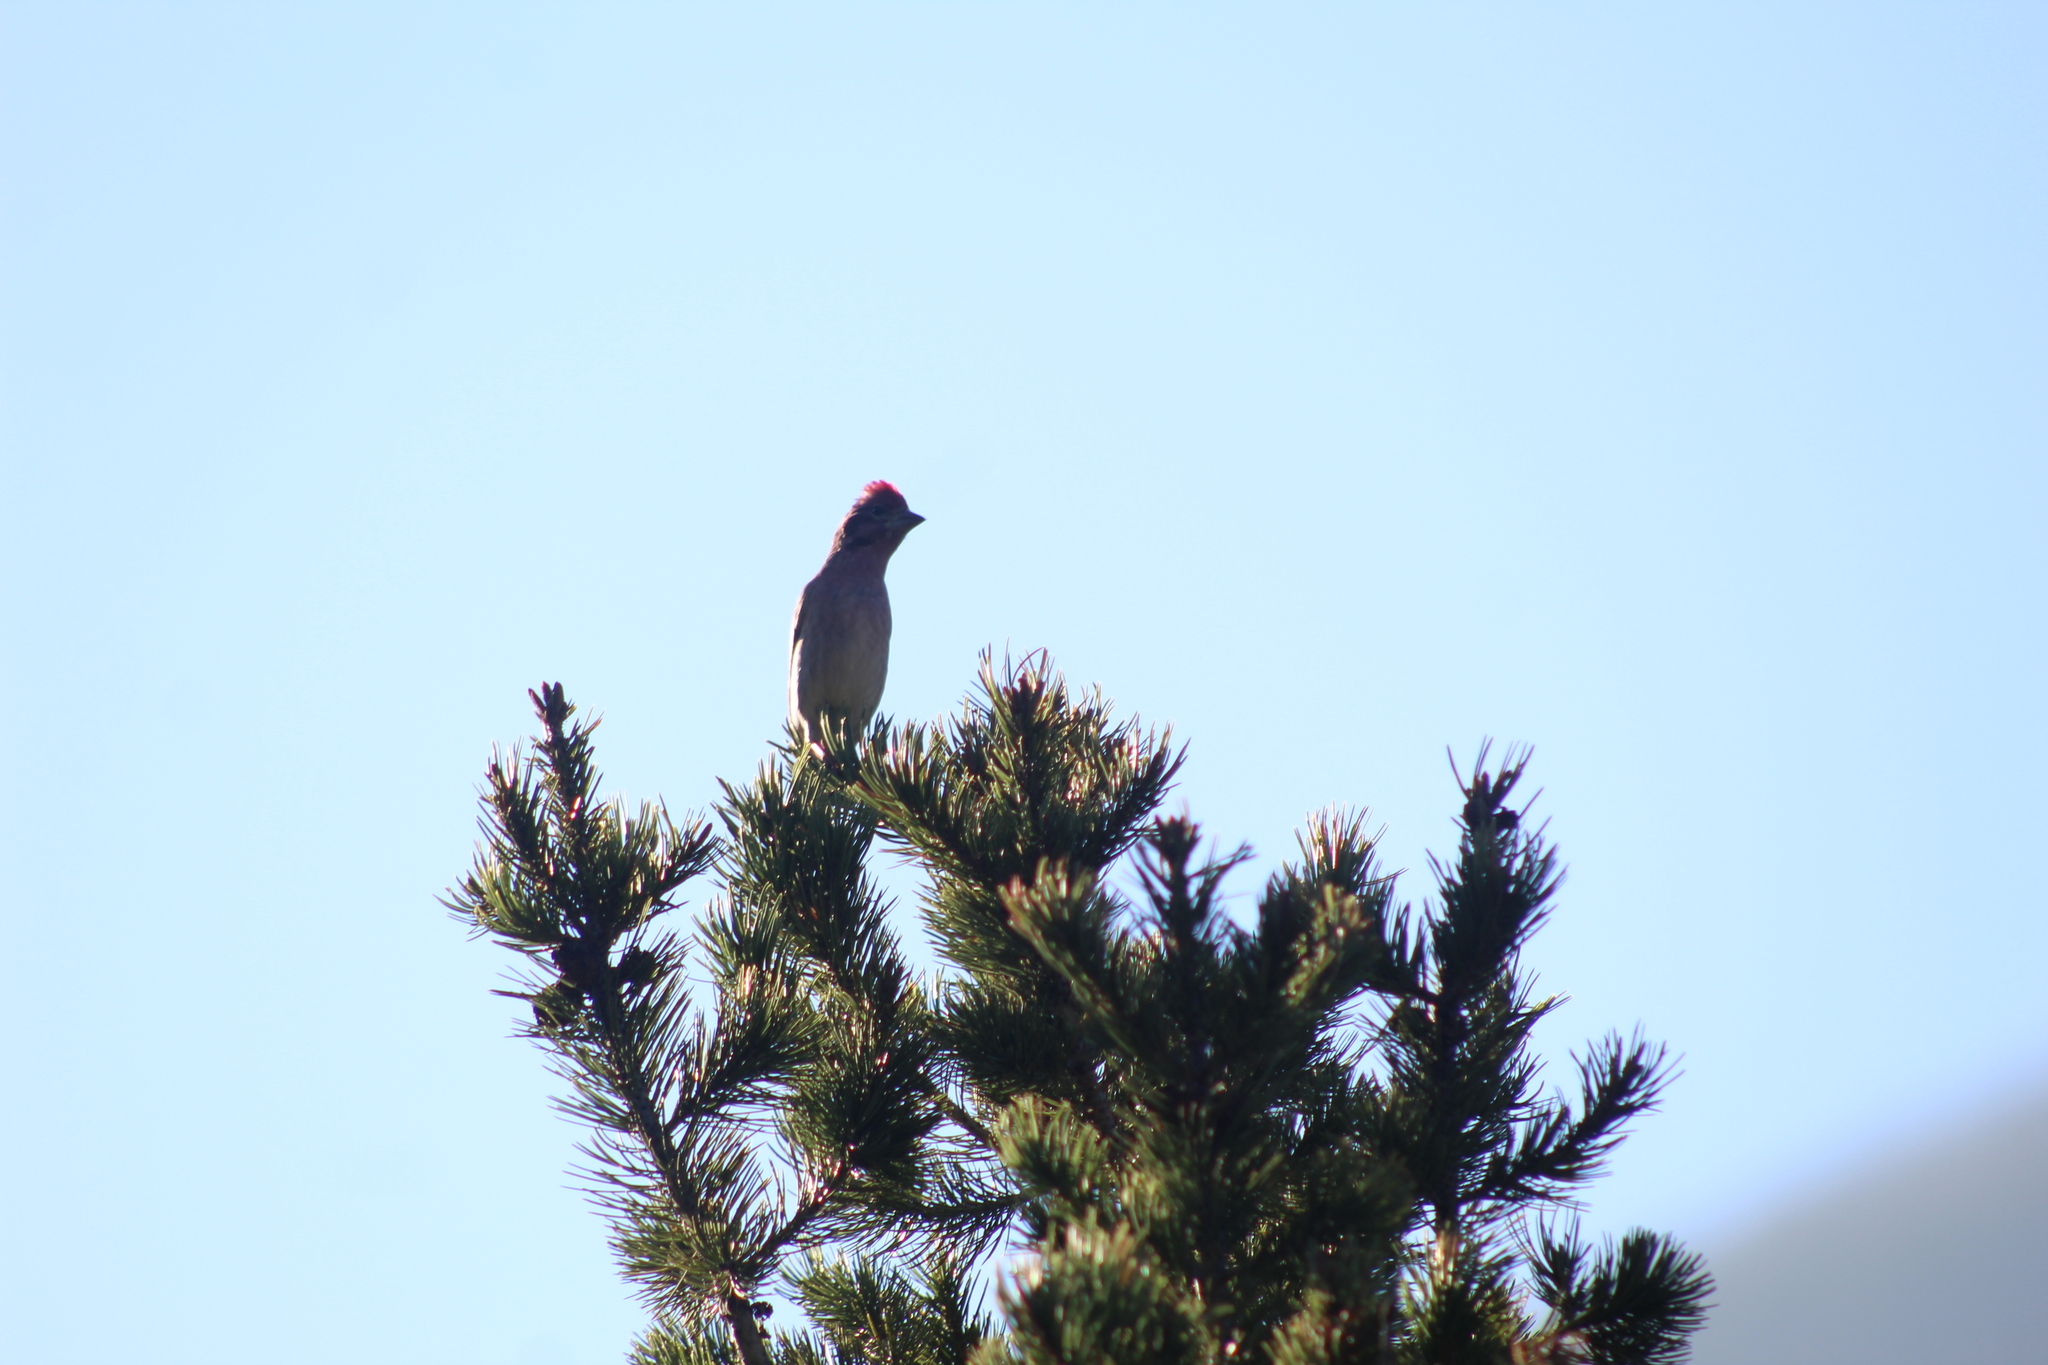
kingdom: Animalia
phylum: Chordata
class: Aves
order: Passeriformes
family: Fringillidae
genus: Haemorhous
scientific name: Haemorhous cassinii
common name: Cassin's finch
